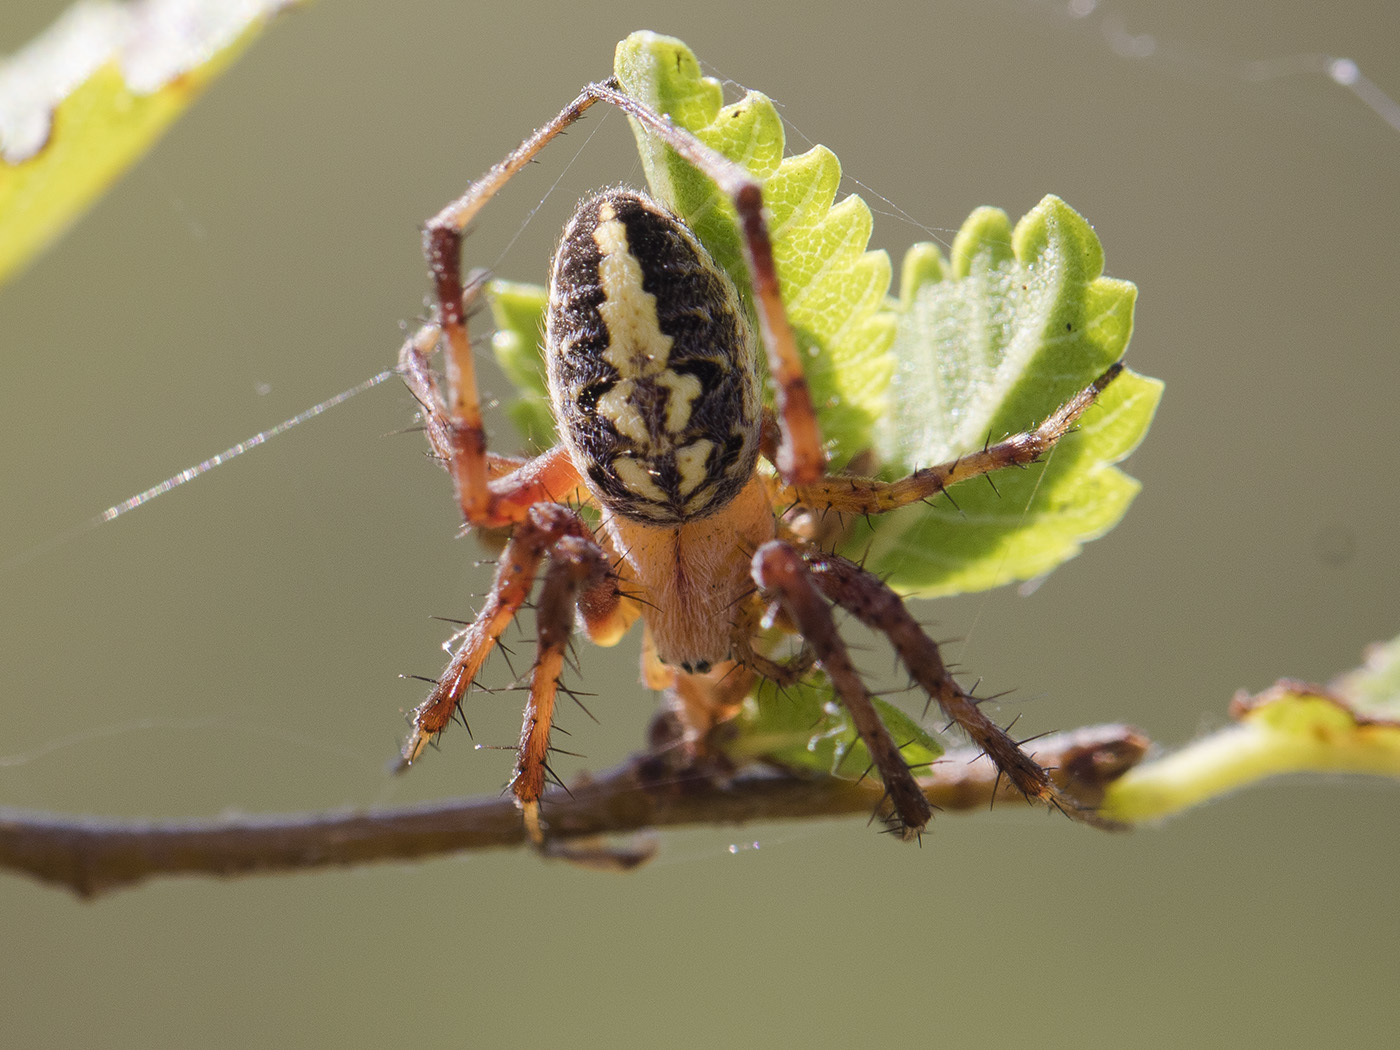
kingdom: Animalia
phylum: Arthropoda
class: Arachnida
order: Araneae
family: Araneidae
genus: Neoscona
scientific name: Neoscona adianta
